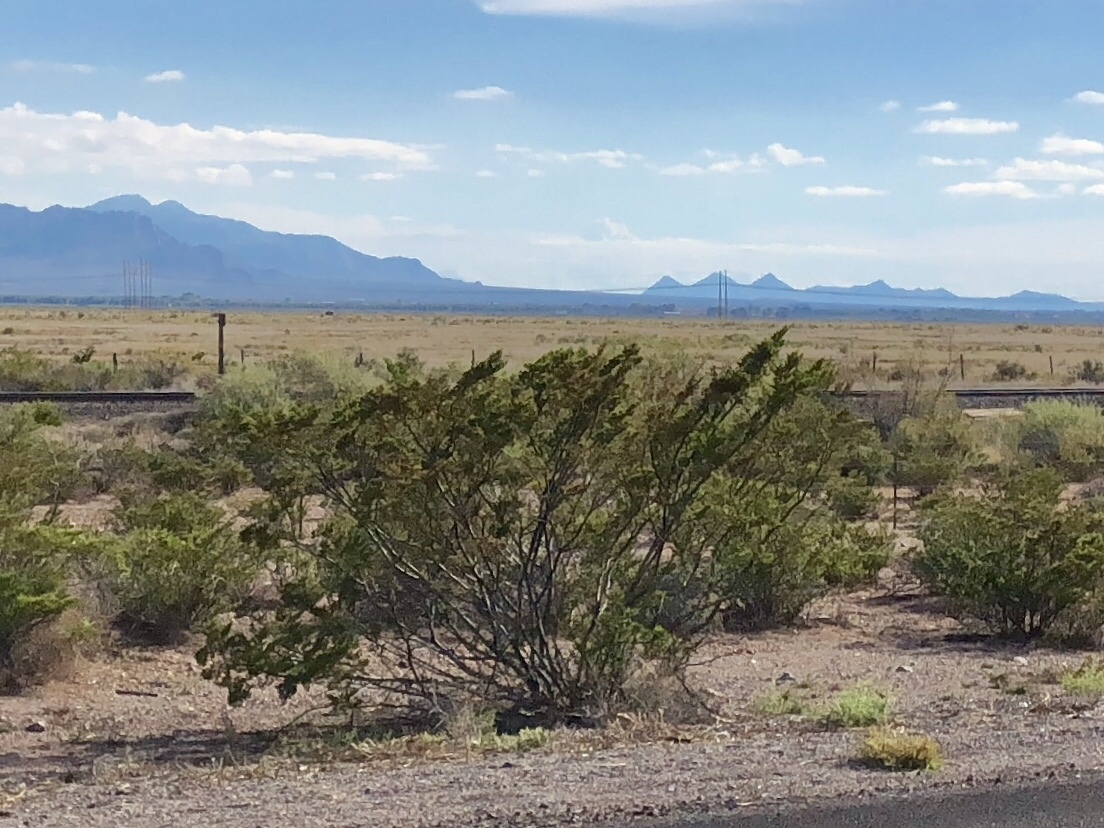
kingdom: Plantae
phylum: Tracheophyta
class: Magnoliopsida
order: Zygophyllales
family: Zygophyllaceae
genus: Larrea
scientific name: Larrea tridentata
